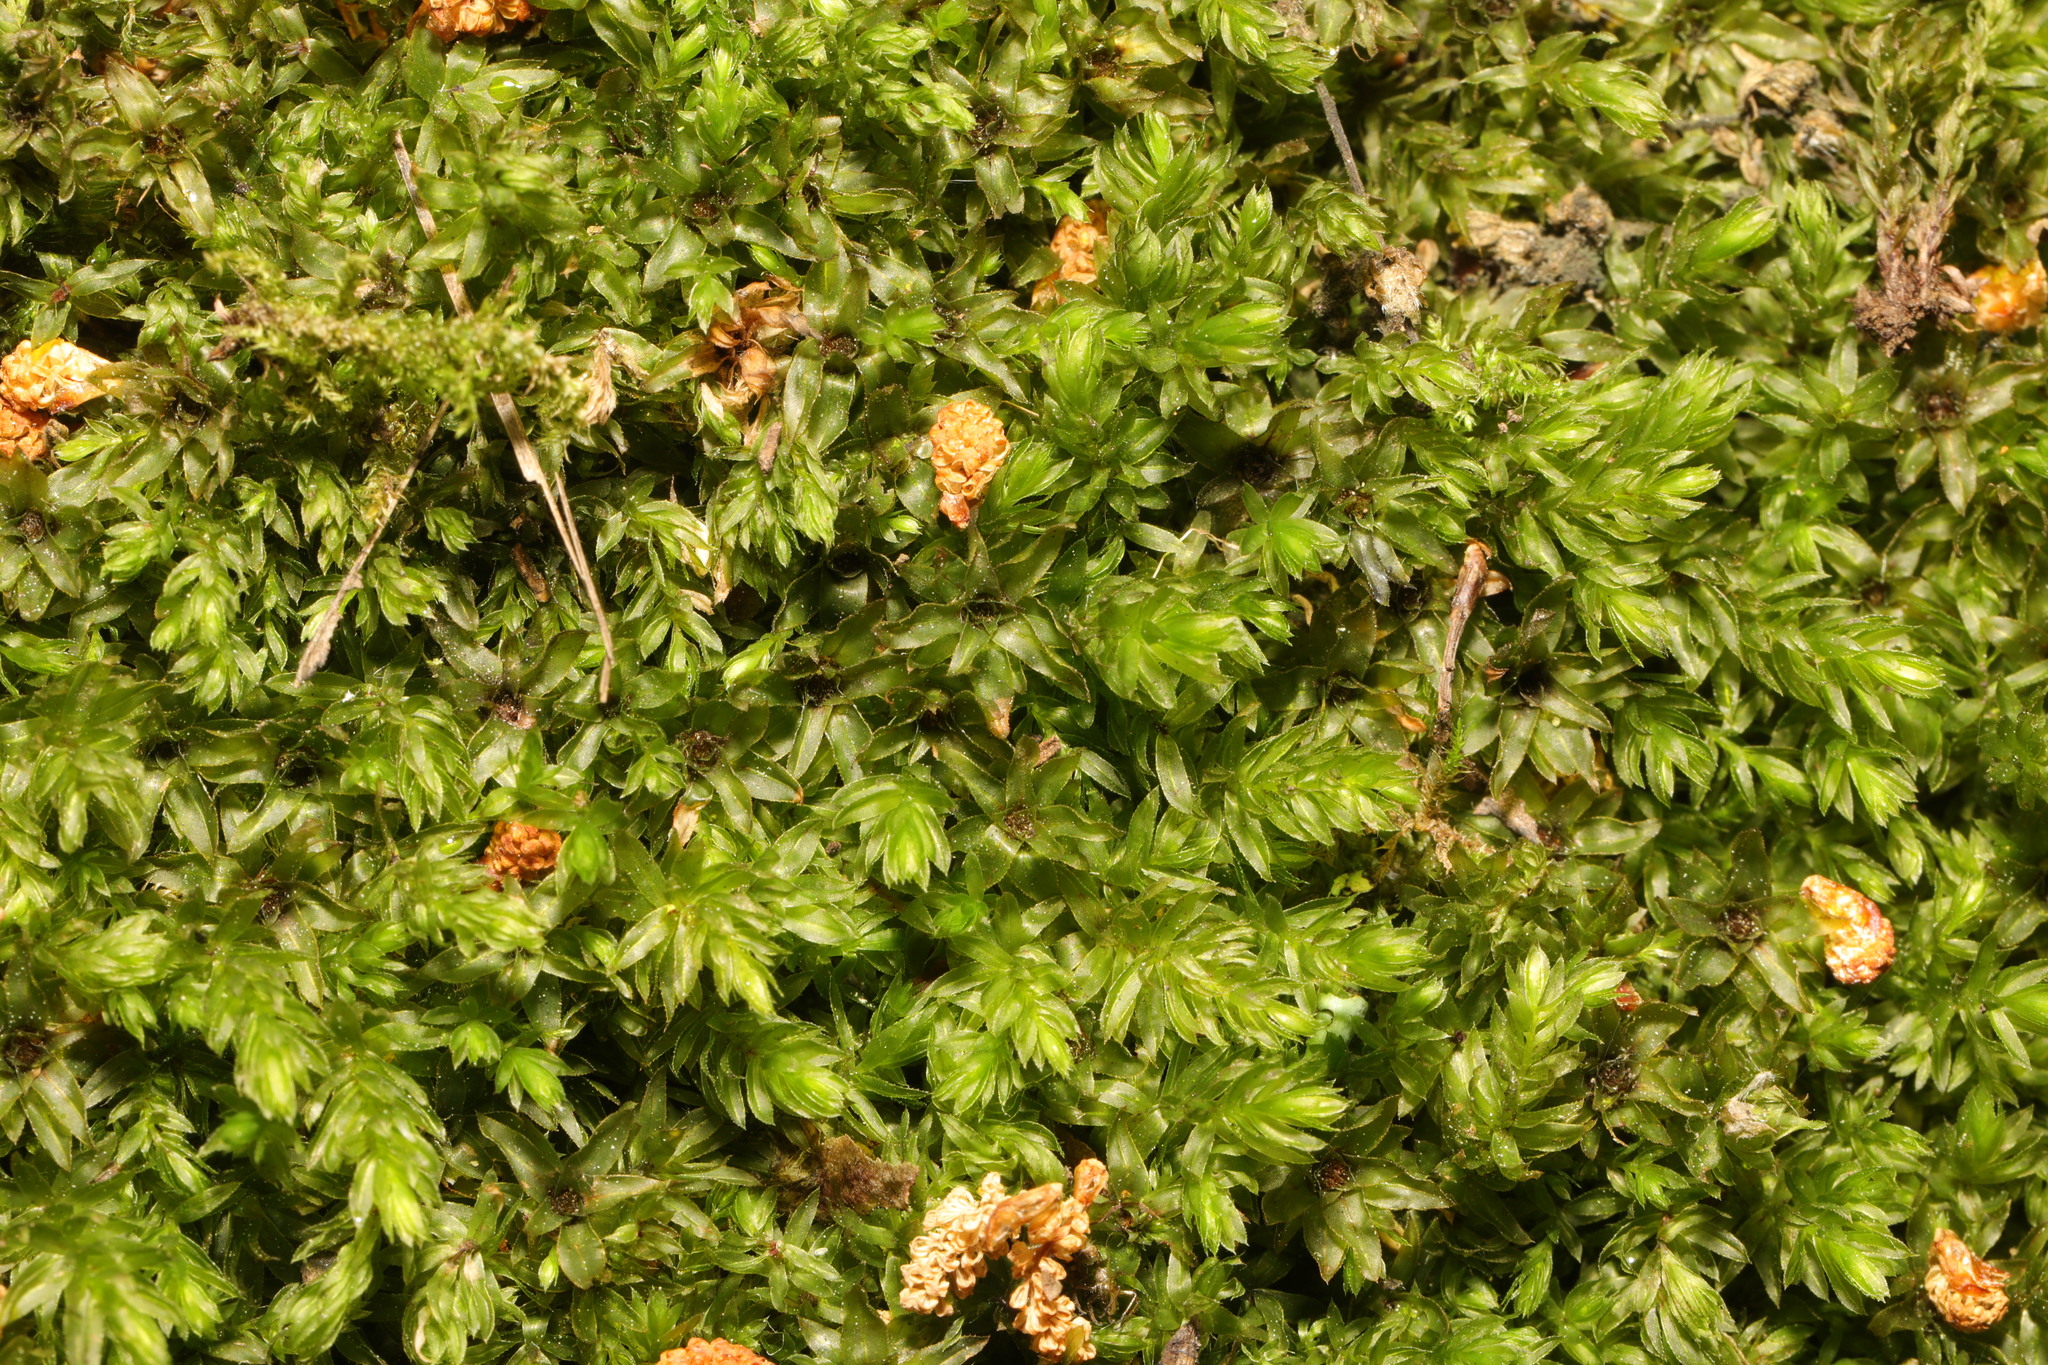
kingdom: Plantae
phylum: Bryophyta
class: Bryopsida
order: Bryales
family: Mniaceae
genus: Mnium
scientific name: Mnium hornum
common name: Swan's-neck leafy moss
